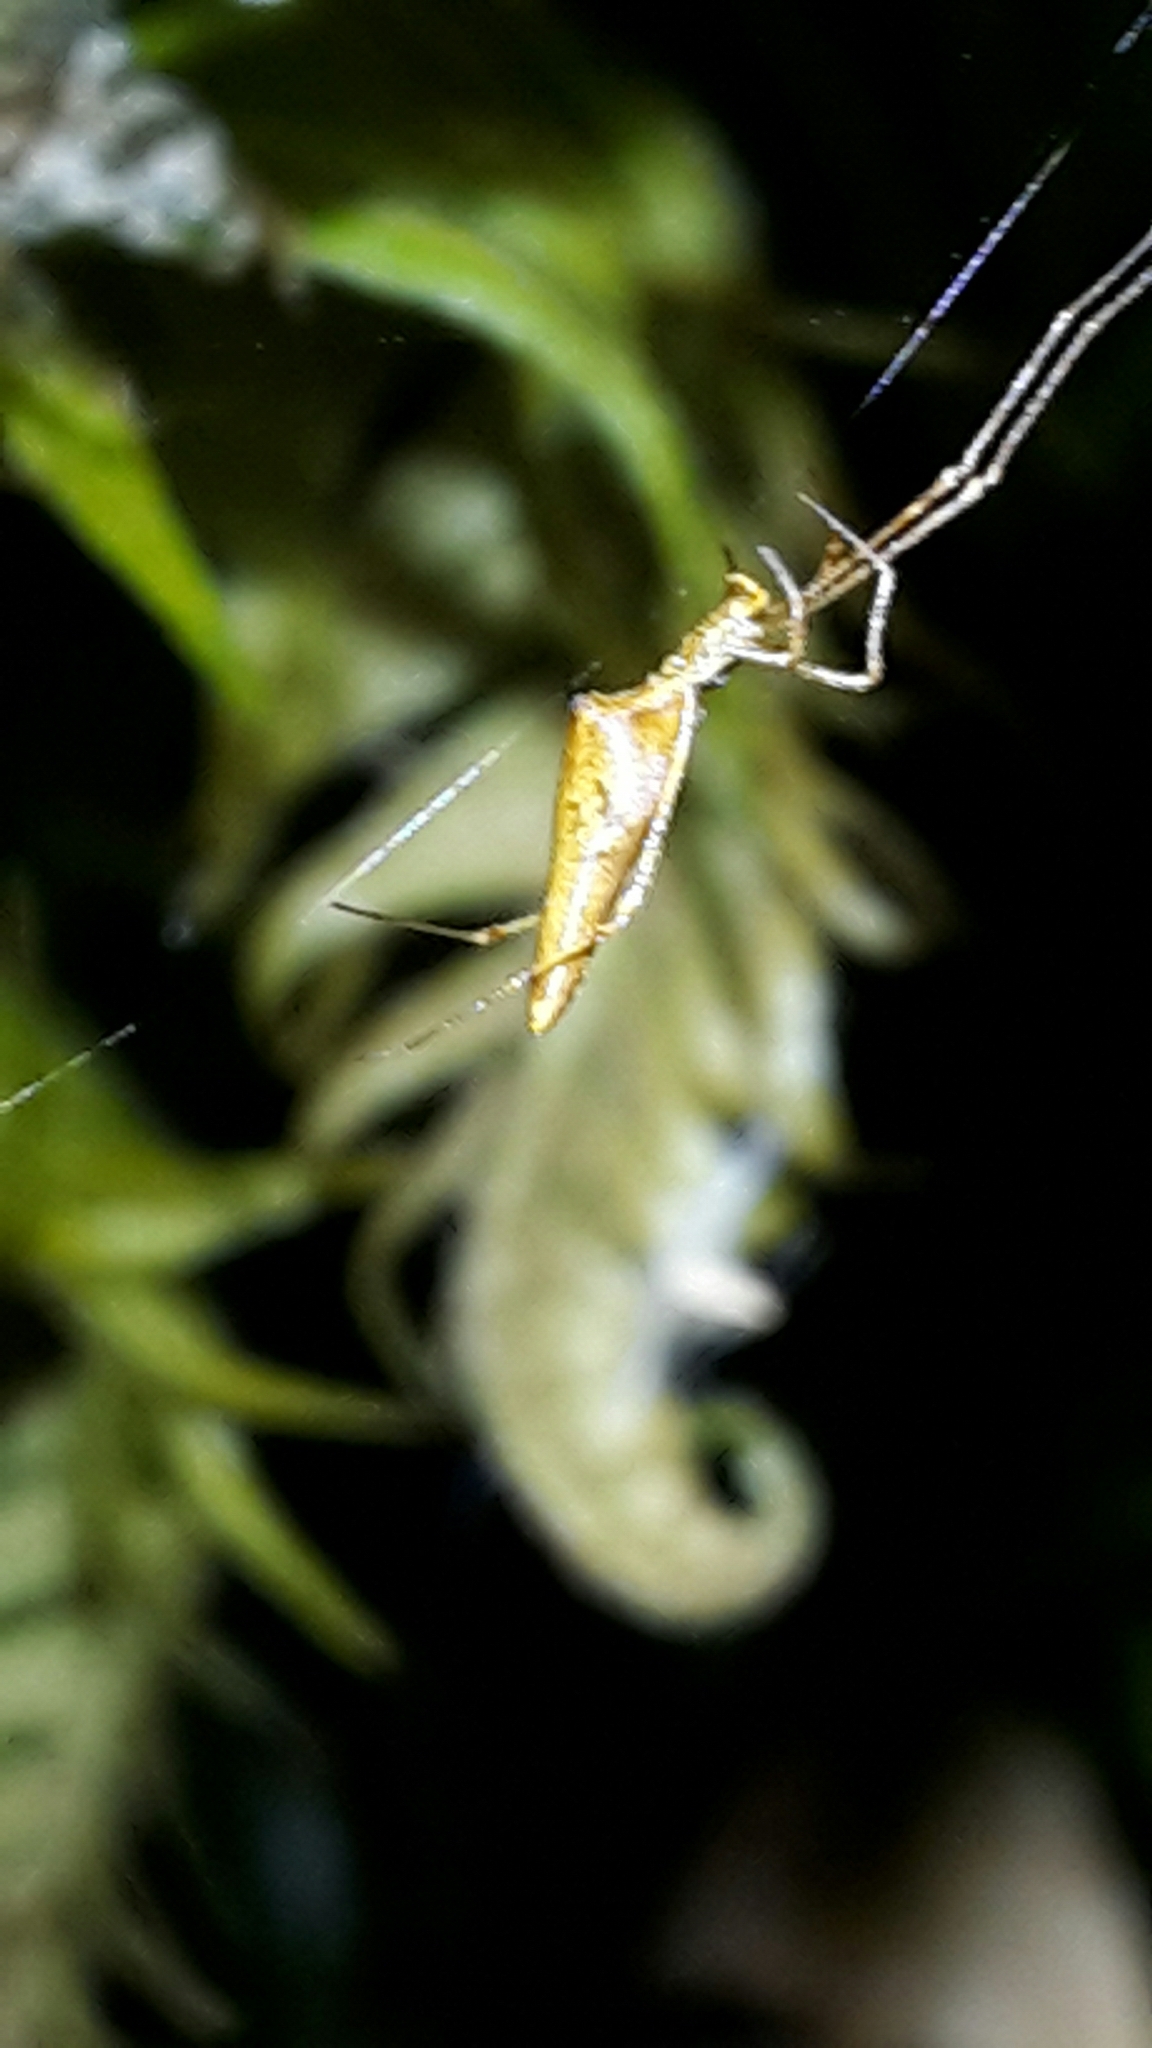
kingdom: Animalia
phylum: Arthropoda
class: Arachnida
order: Araneae
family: Theridiidae
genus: Rhomphaea
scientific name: Rhomphaea urquharti
